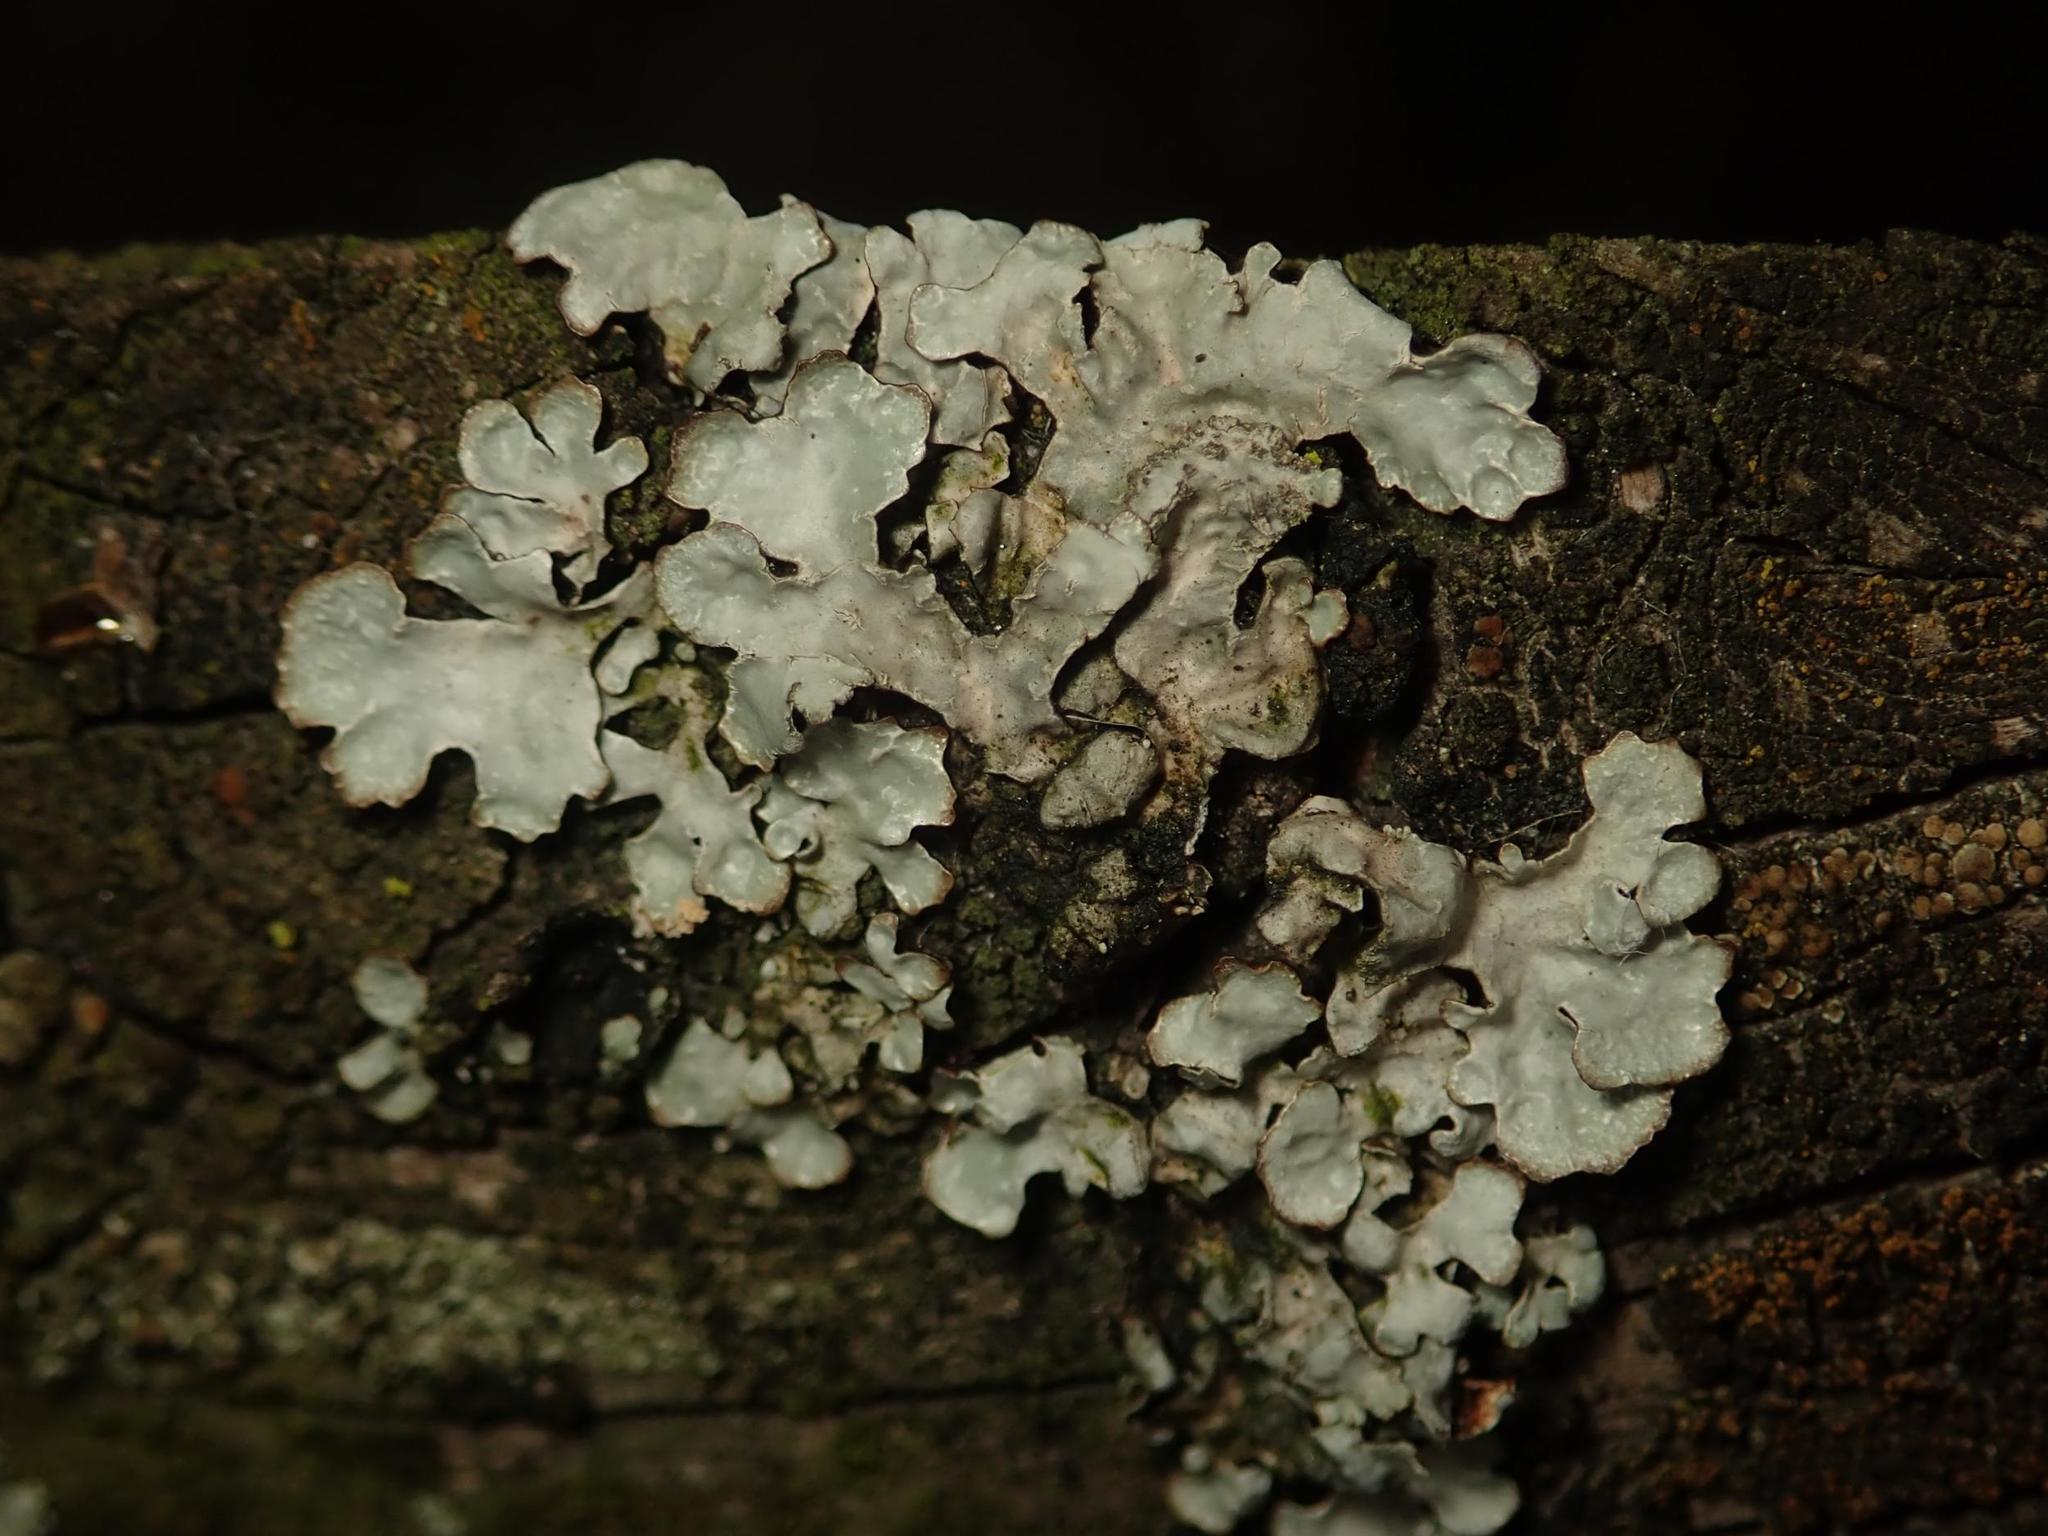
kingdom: Fungi
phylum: Ascomycota
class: Lecanoromycetes
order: Lecanorales
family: Parmeliaceae
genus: Parmelia
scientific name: Parmelia sulcata
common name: Netted shield lichen
